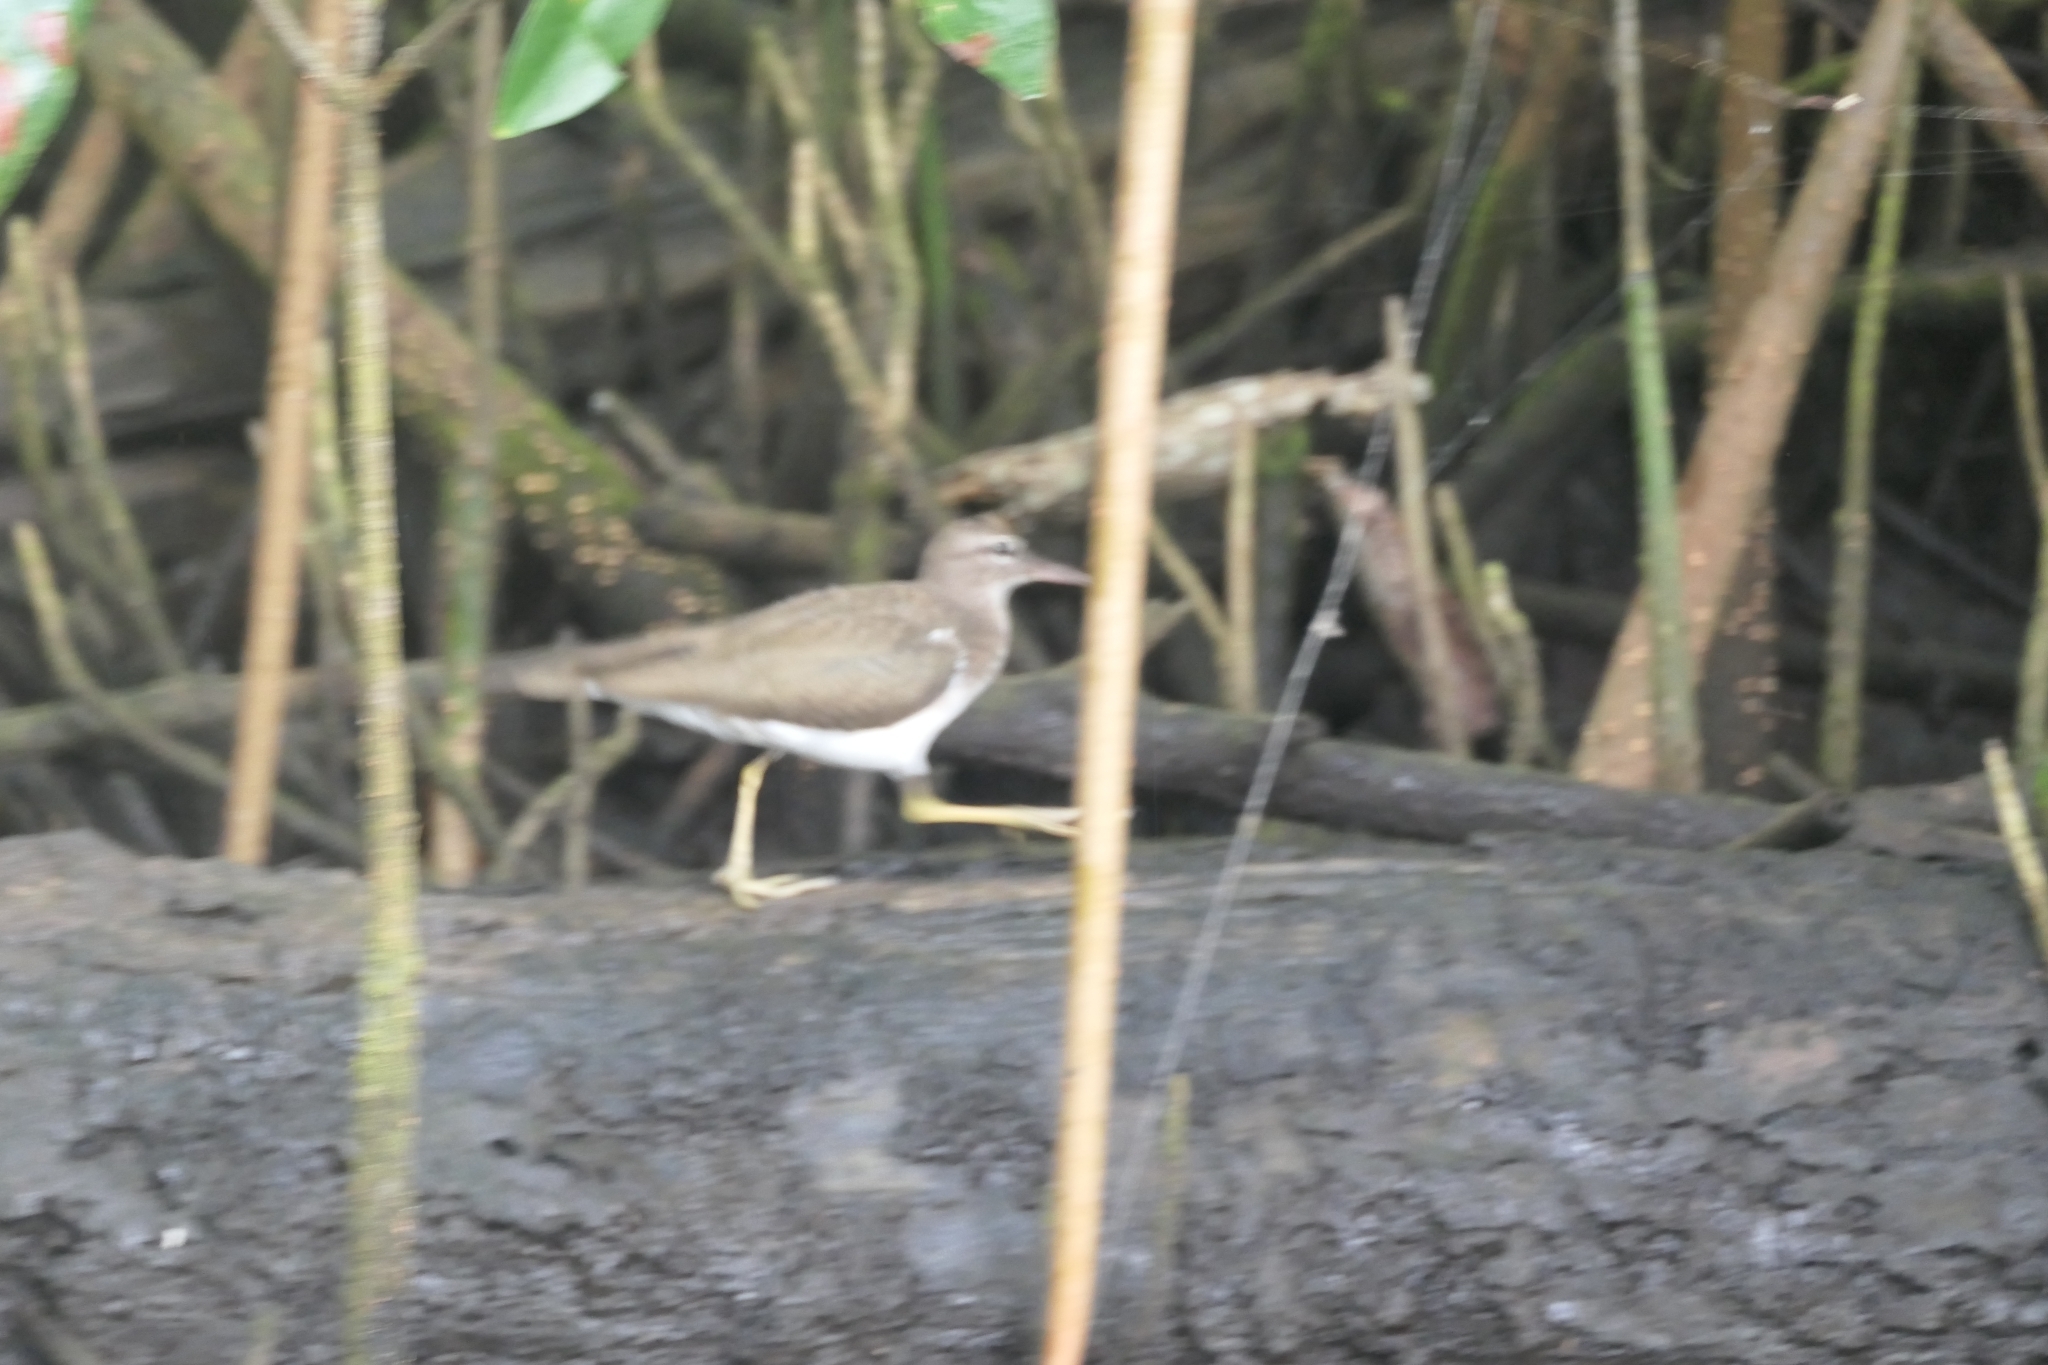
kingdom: Animalia
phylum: Chordata
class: Aves
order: Charadriiformes
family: Scolopacidae
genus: Actitis
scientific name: Actitis macularius
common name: Spotted sandpiper
